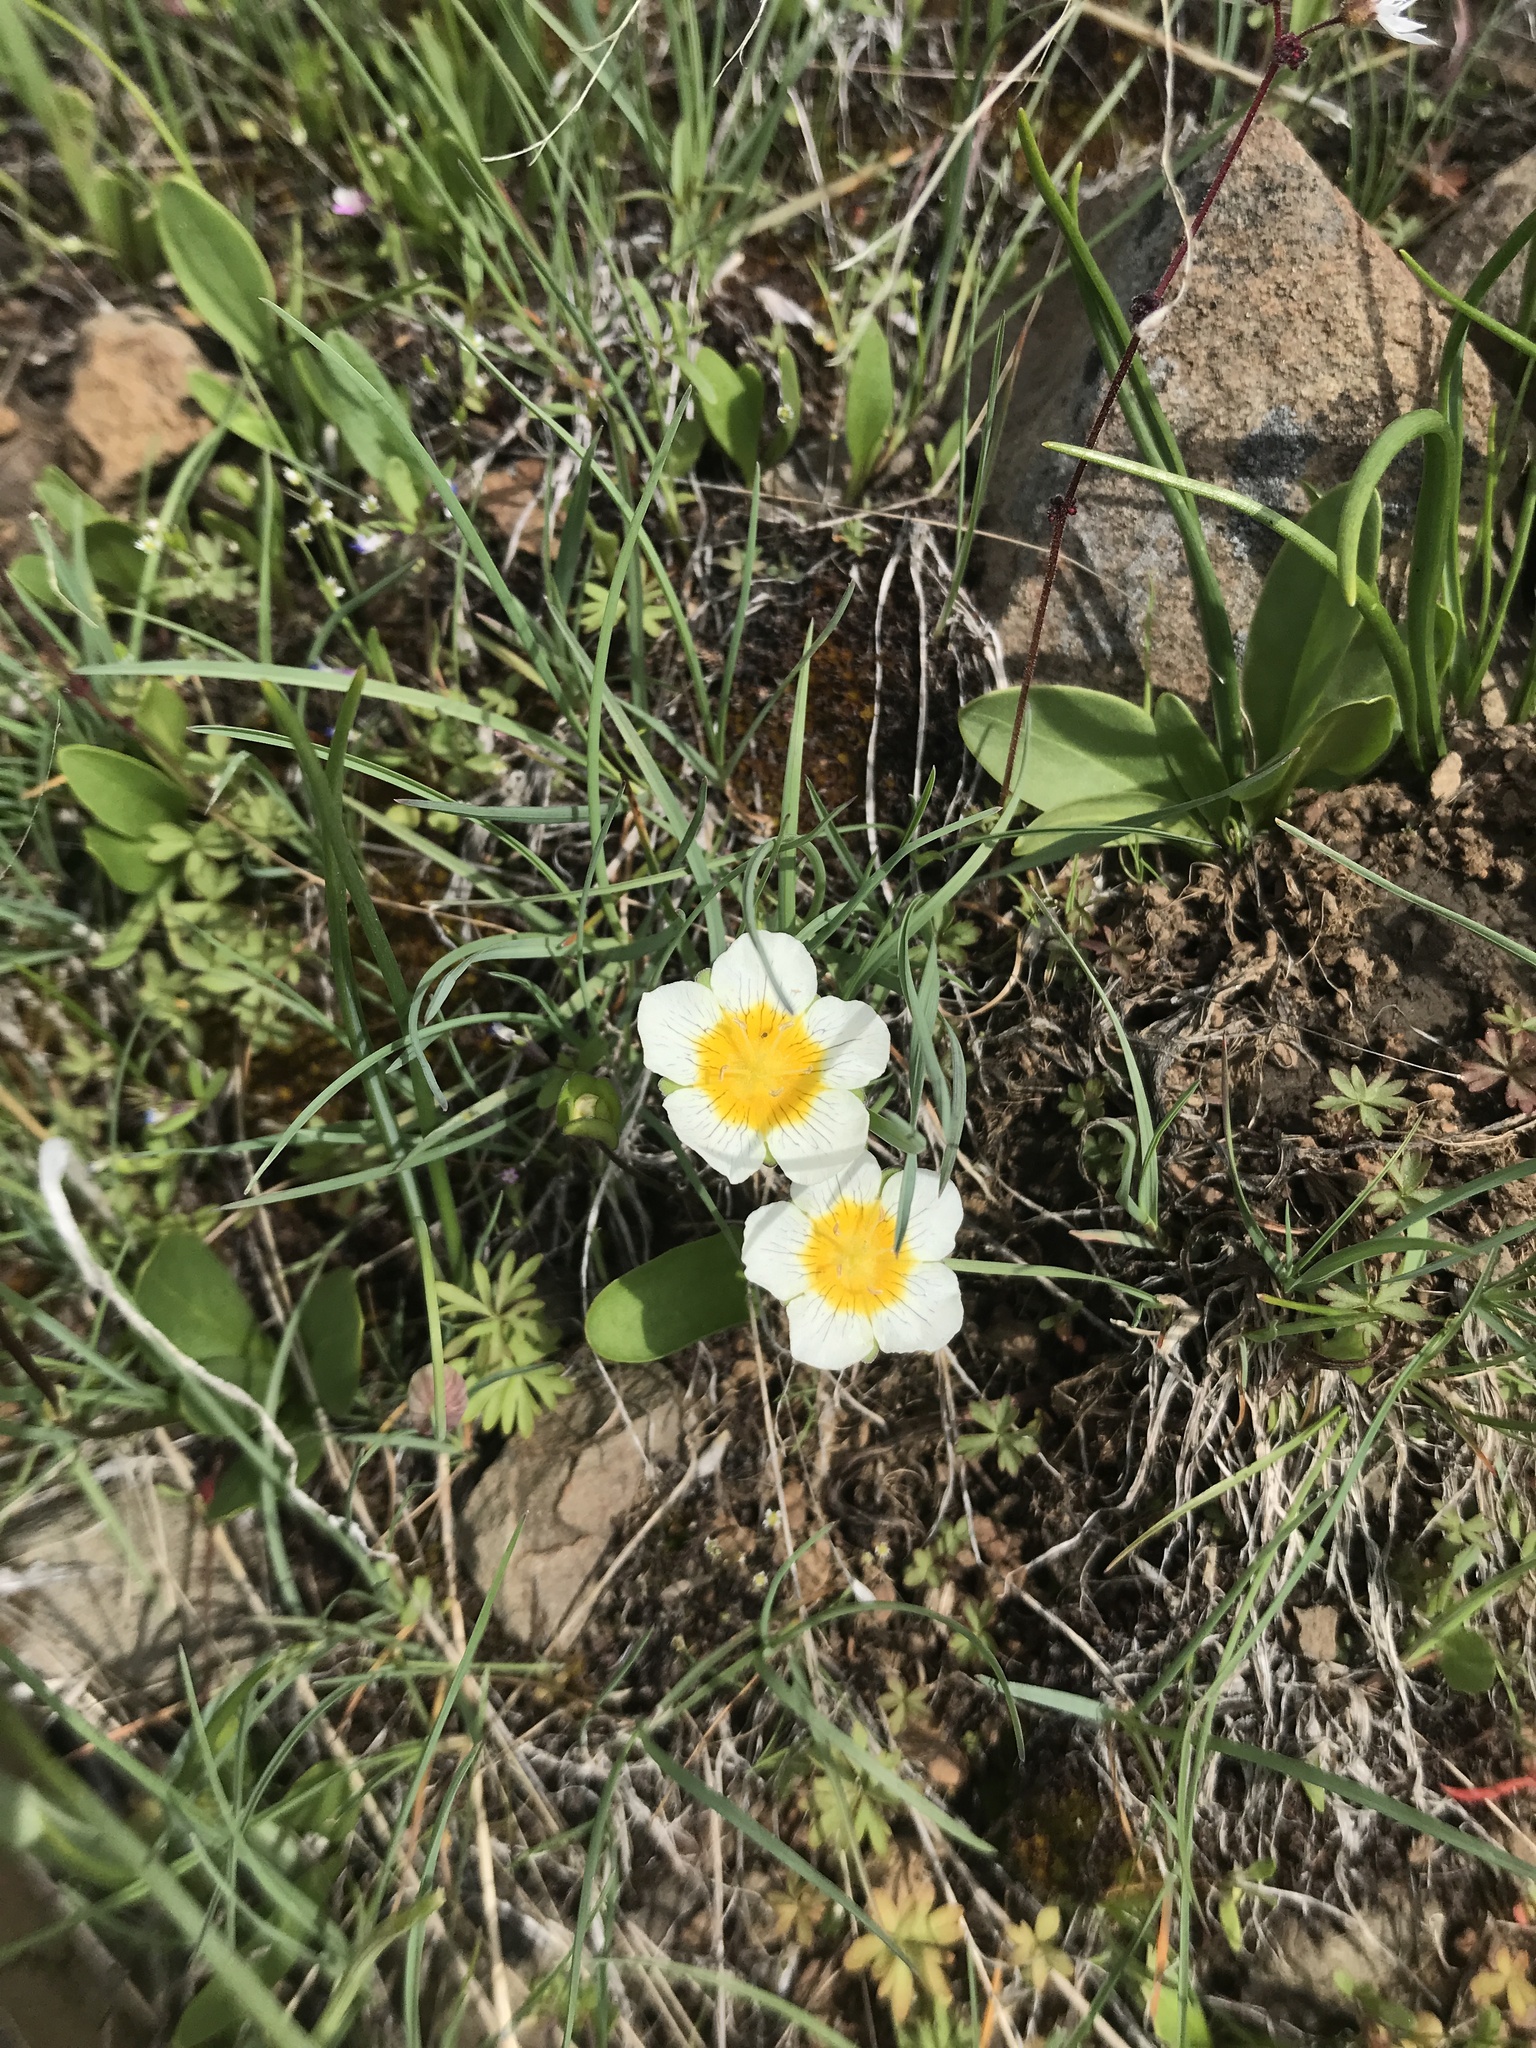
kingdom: Plantae
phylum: Tracheophyta
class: Magnoliopsida
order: Boraginales
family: Hydrophyllaceae
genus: Hesperochiron
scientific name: Hesperochiron pumilus
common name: Dwarf hesperochiron
